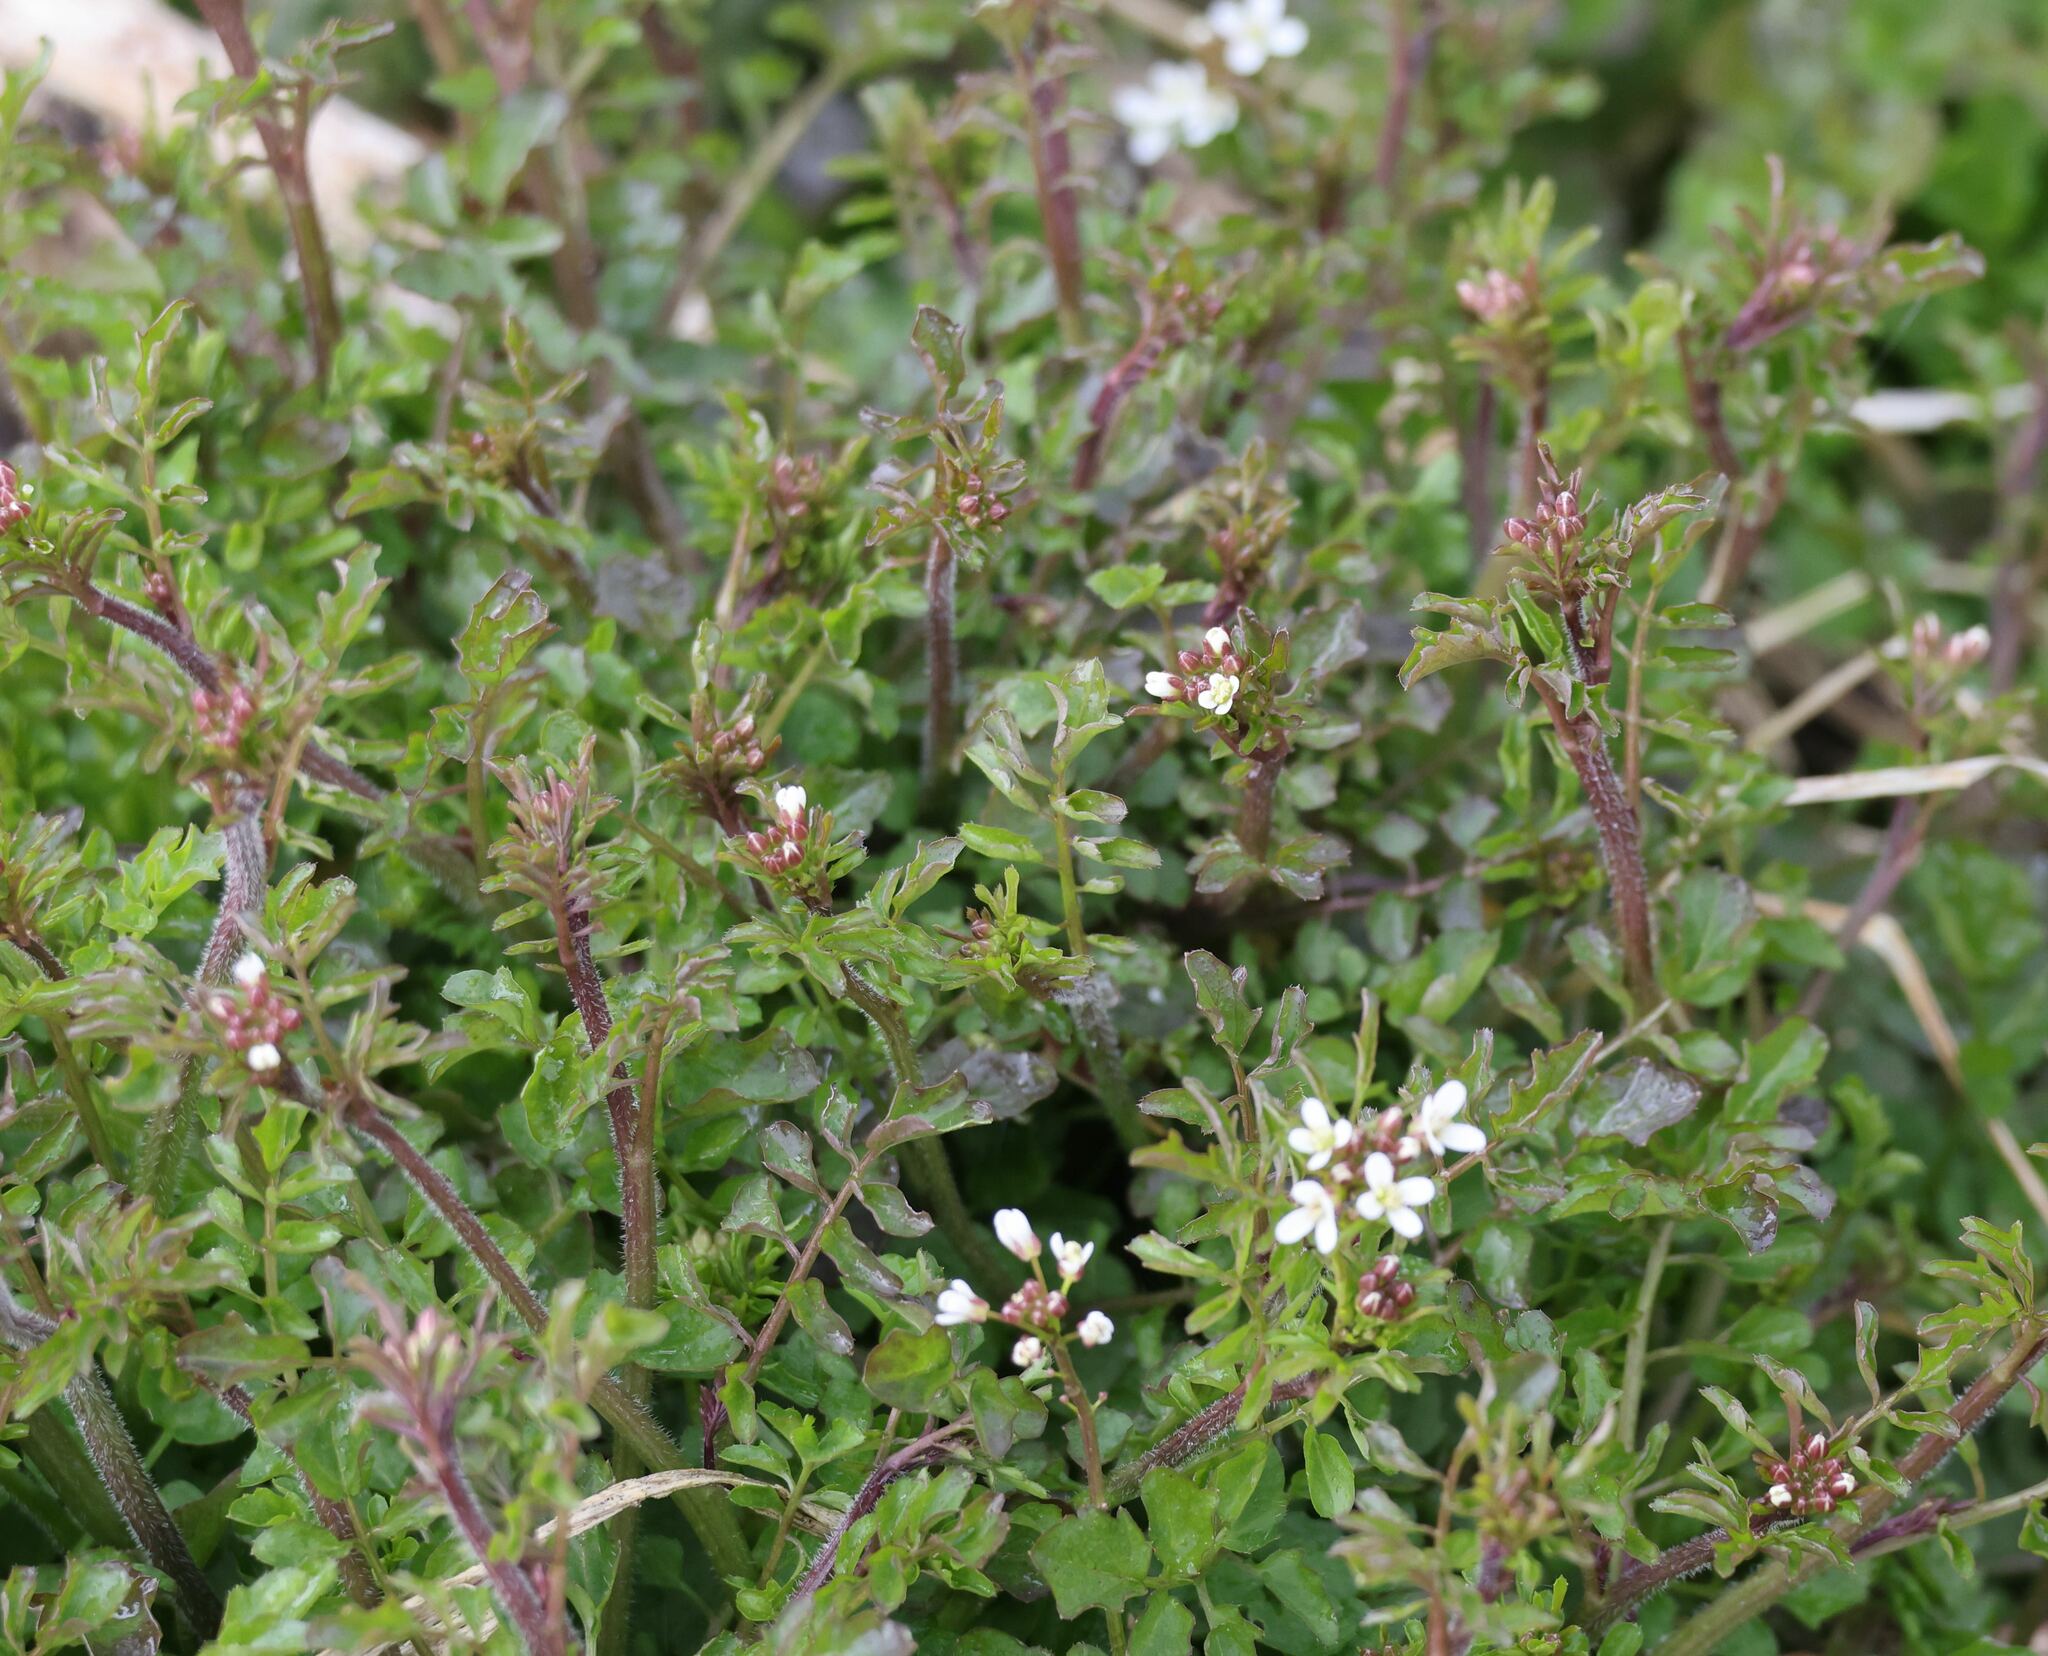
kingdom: Plantae
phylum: Tracheophyta
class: Magnoliopsida
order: Brassicales
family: Brassicaceae
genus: Cardamine
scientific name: Cardamine flexuosa
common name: Woodland bittercress
